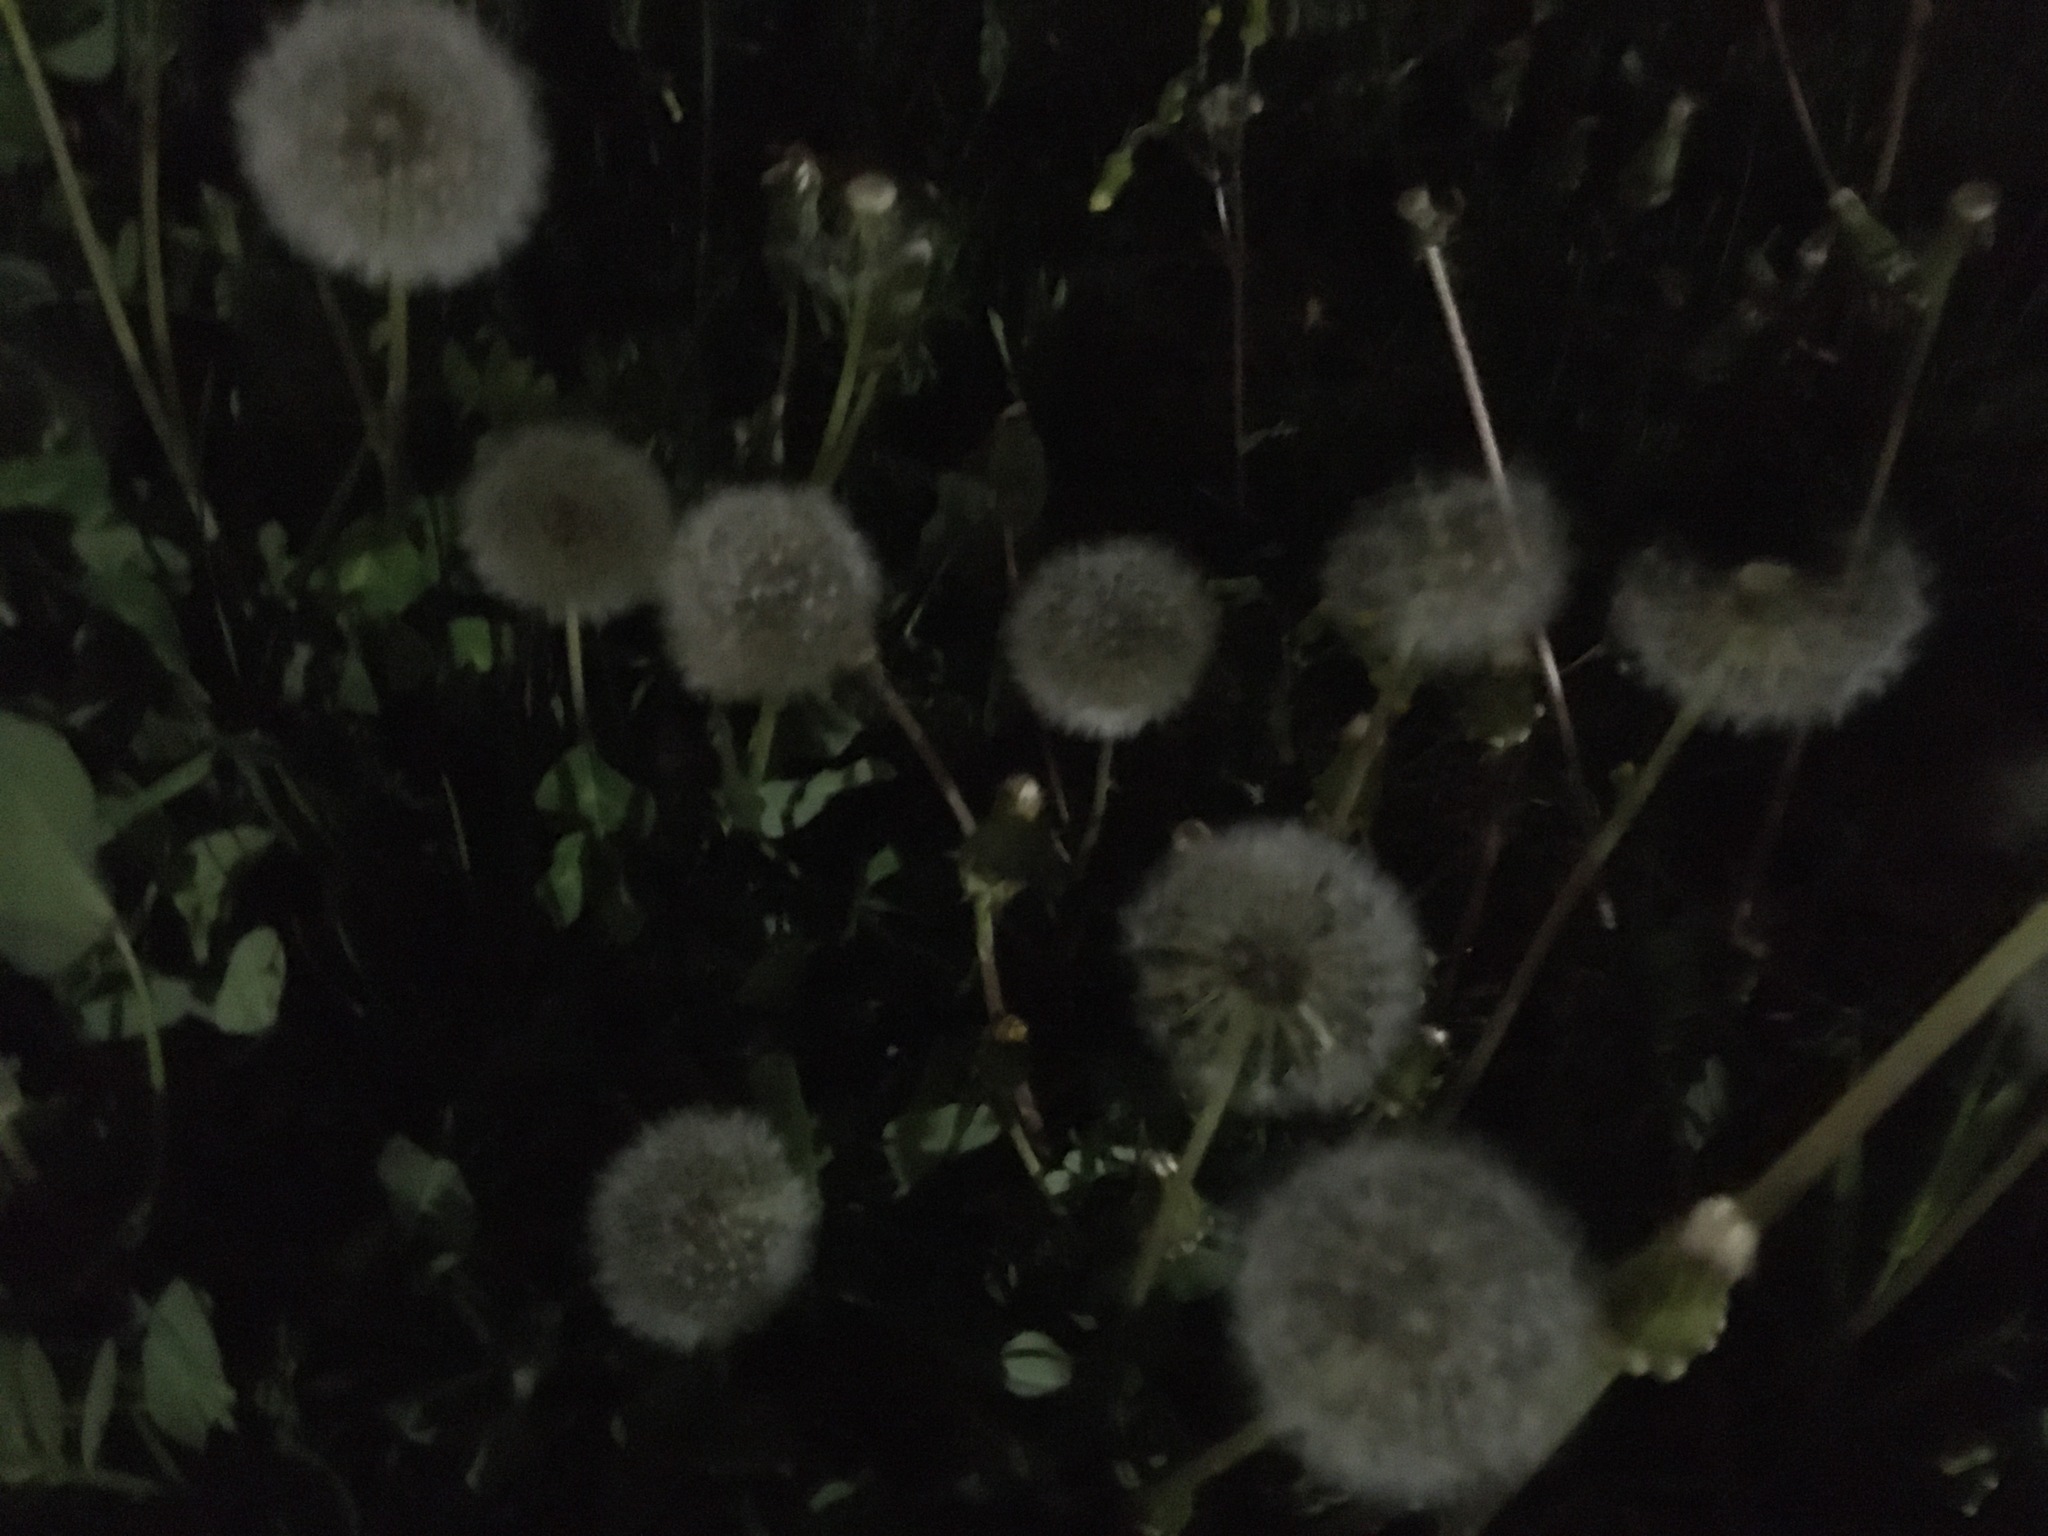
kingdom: Plantae
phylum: Tracheophyta
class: Magnoliopsida
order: Asterales
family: Asteraceae
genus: Taraxacum
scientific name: Taraxacum officinale
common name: Common dandelion
